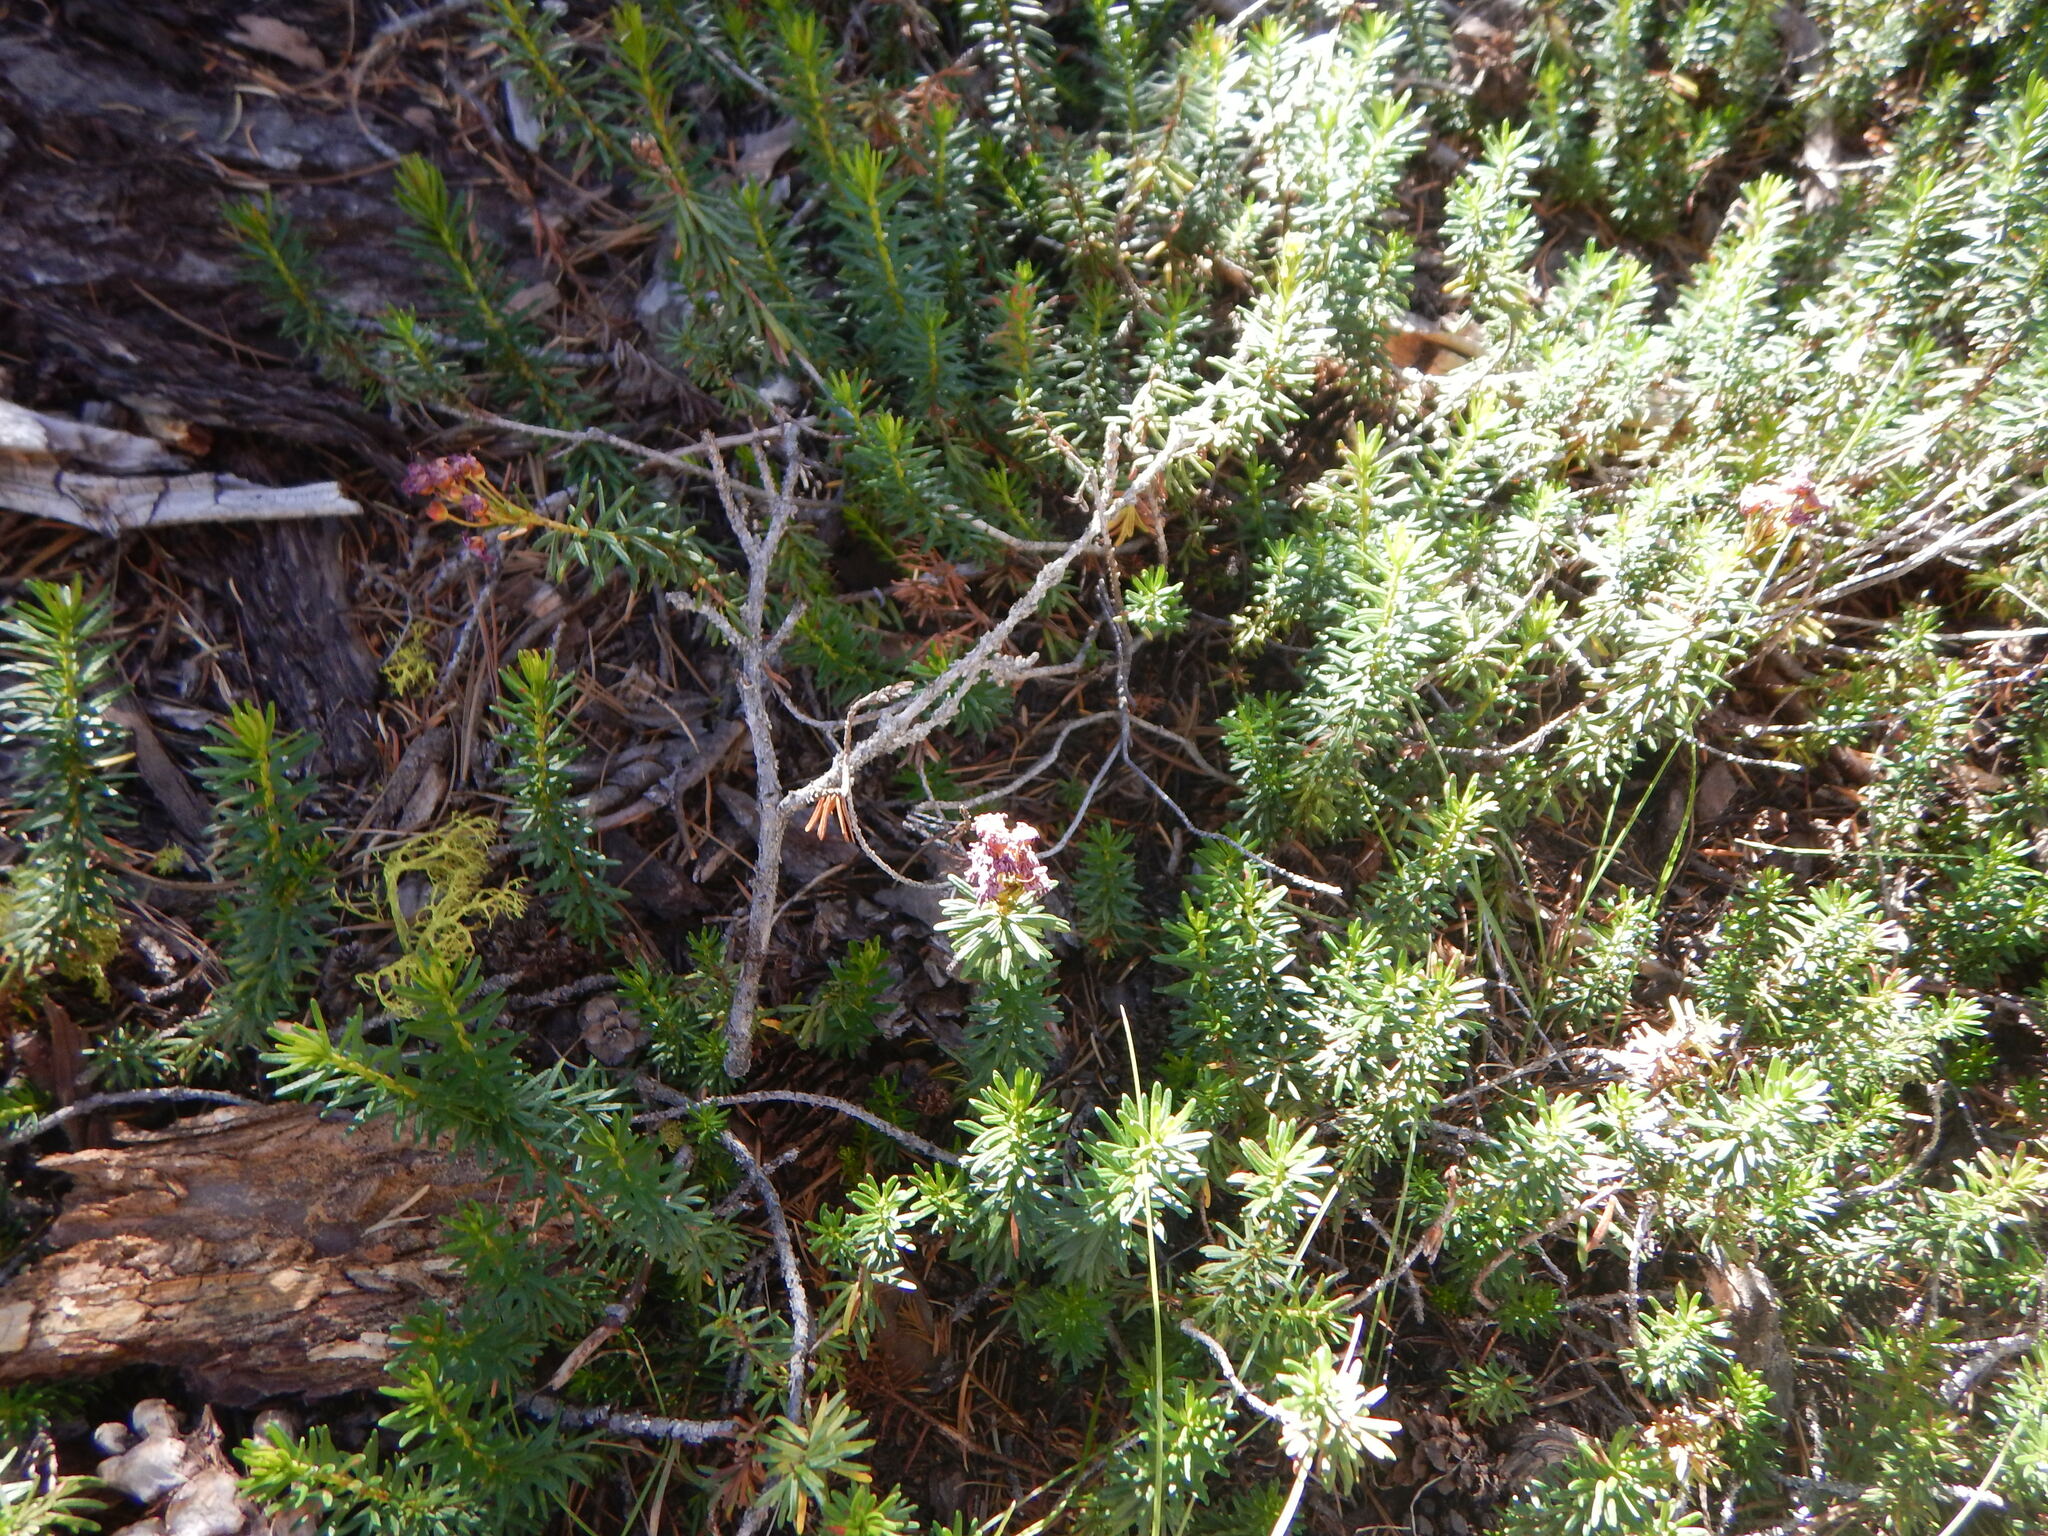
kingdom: Plantae
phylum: Tracheophyta
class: Magnoliopsida
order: Ericales
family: Ericaceae
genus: Phyllodoce
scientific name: Phyllodoce breweri
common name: Brewer's mountain-heather
